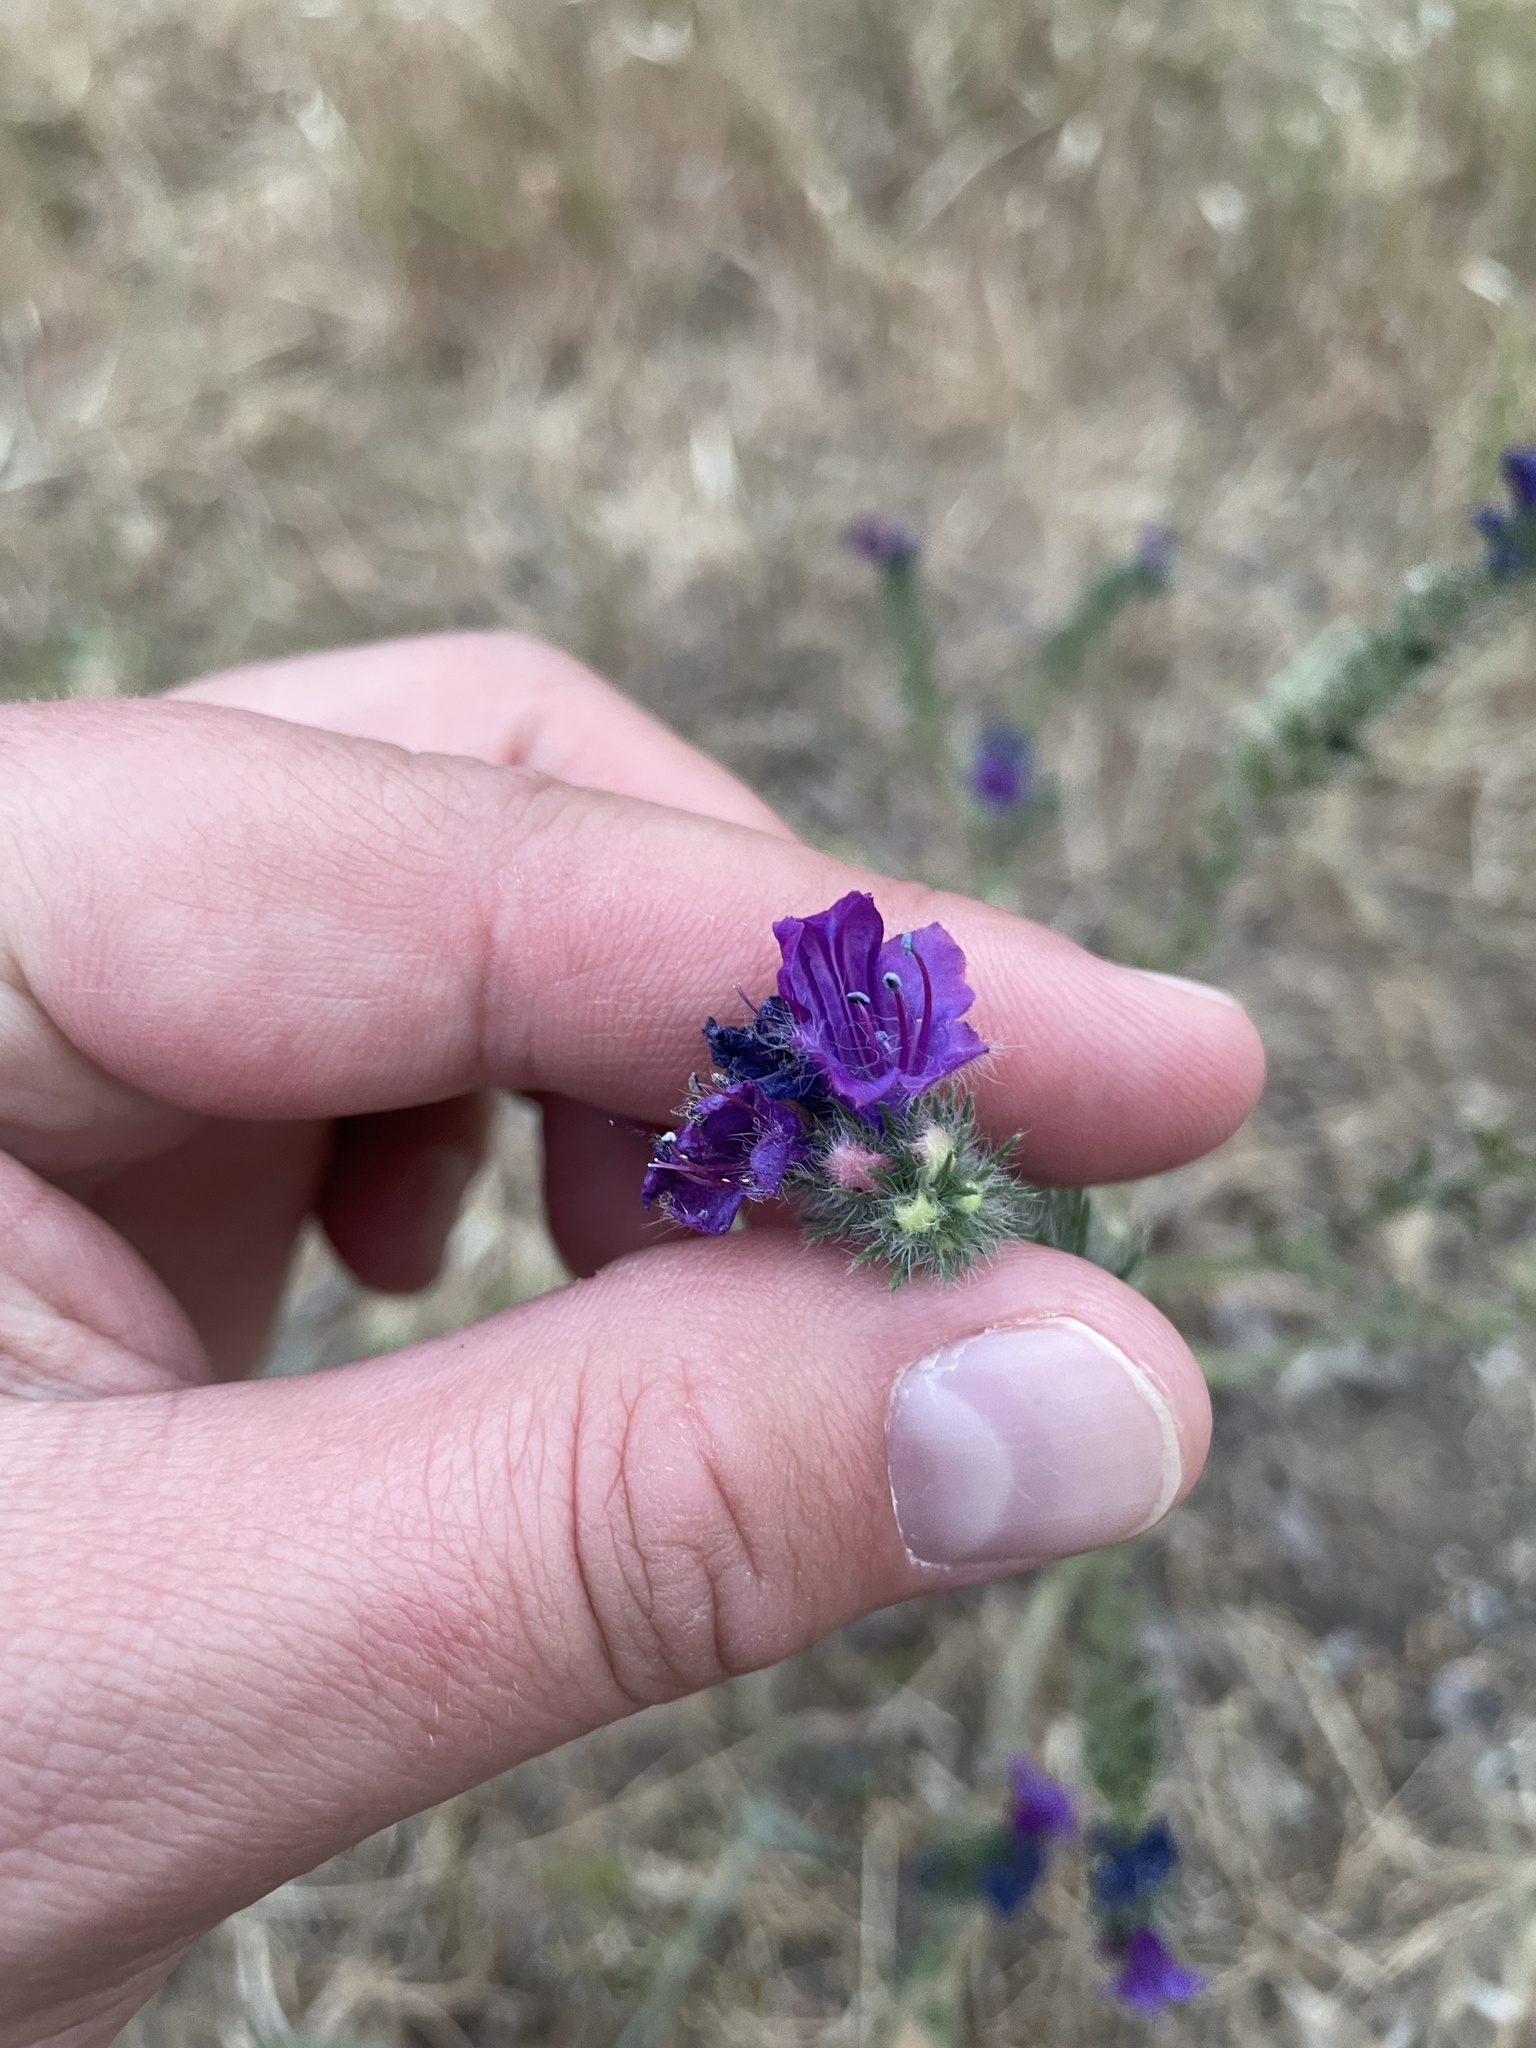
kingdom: Plantae
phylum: Tracheophyta
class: Magnoliopsida
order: Boraginales
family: Boraginaceae
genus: Echium
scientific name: Echium plantagineum
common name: Purple viper's-bugloss
